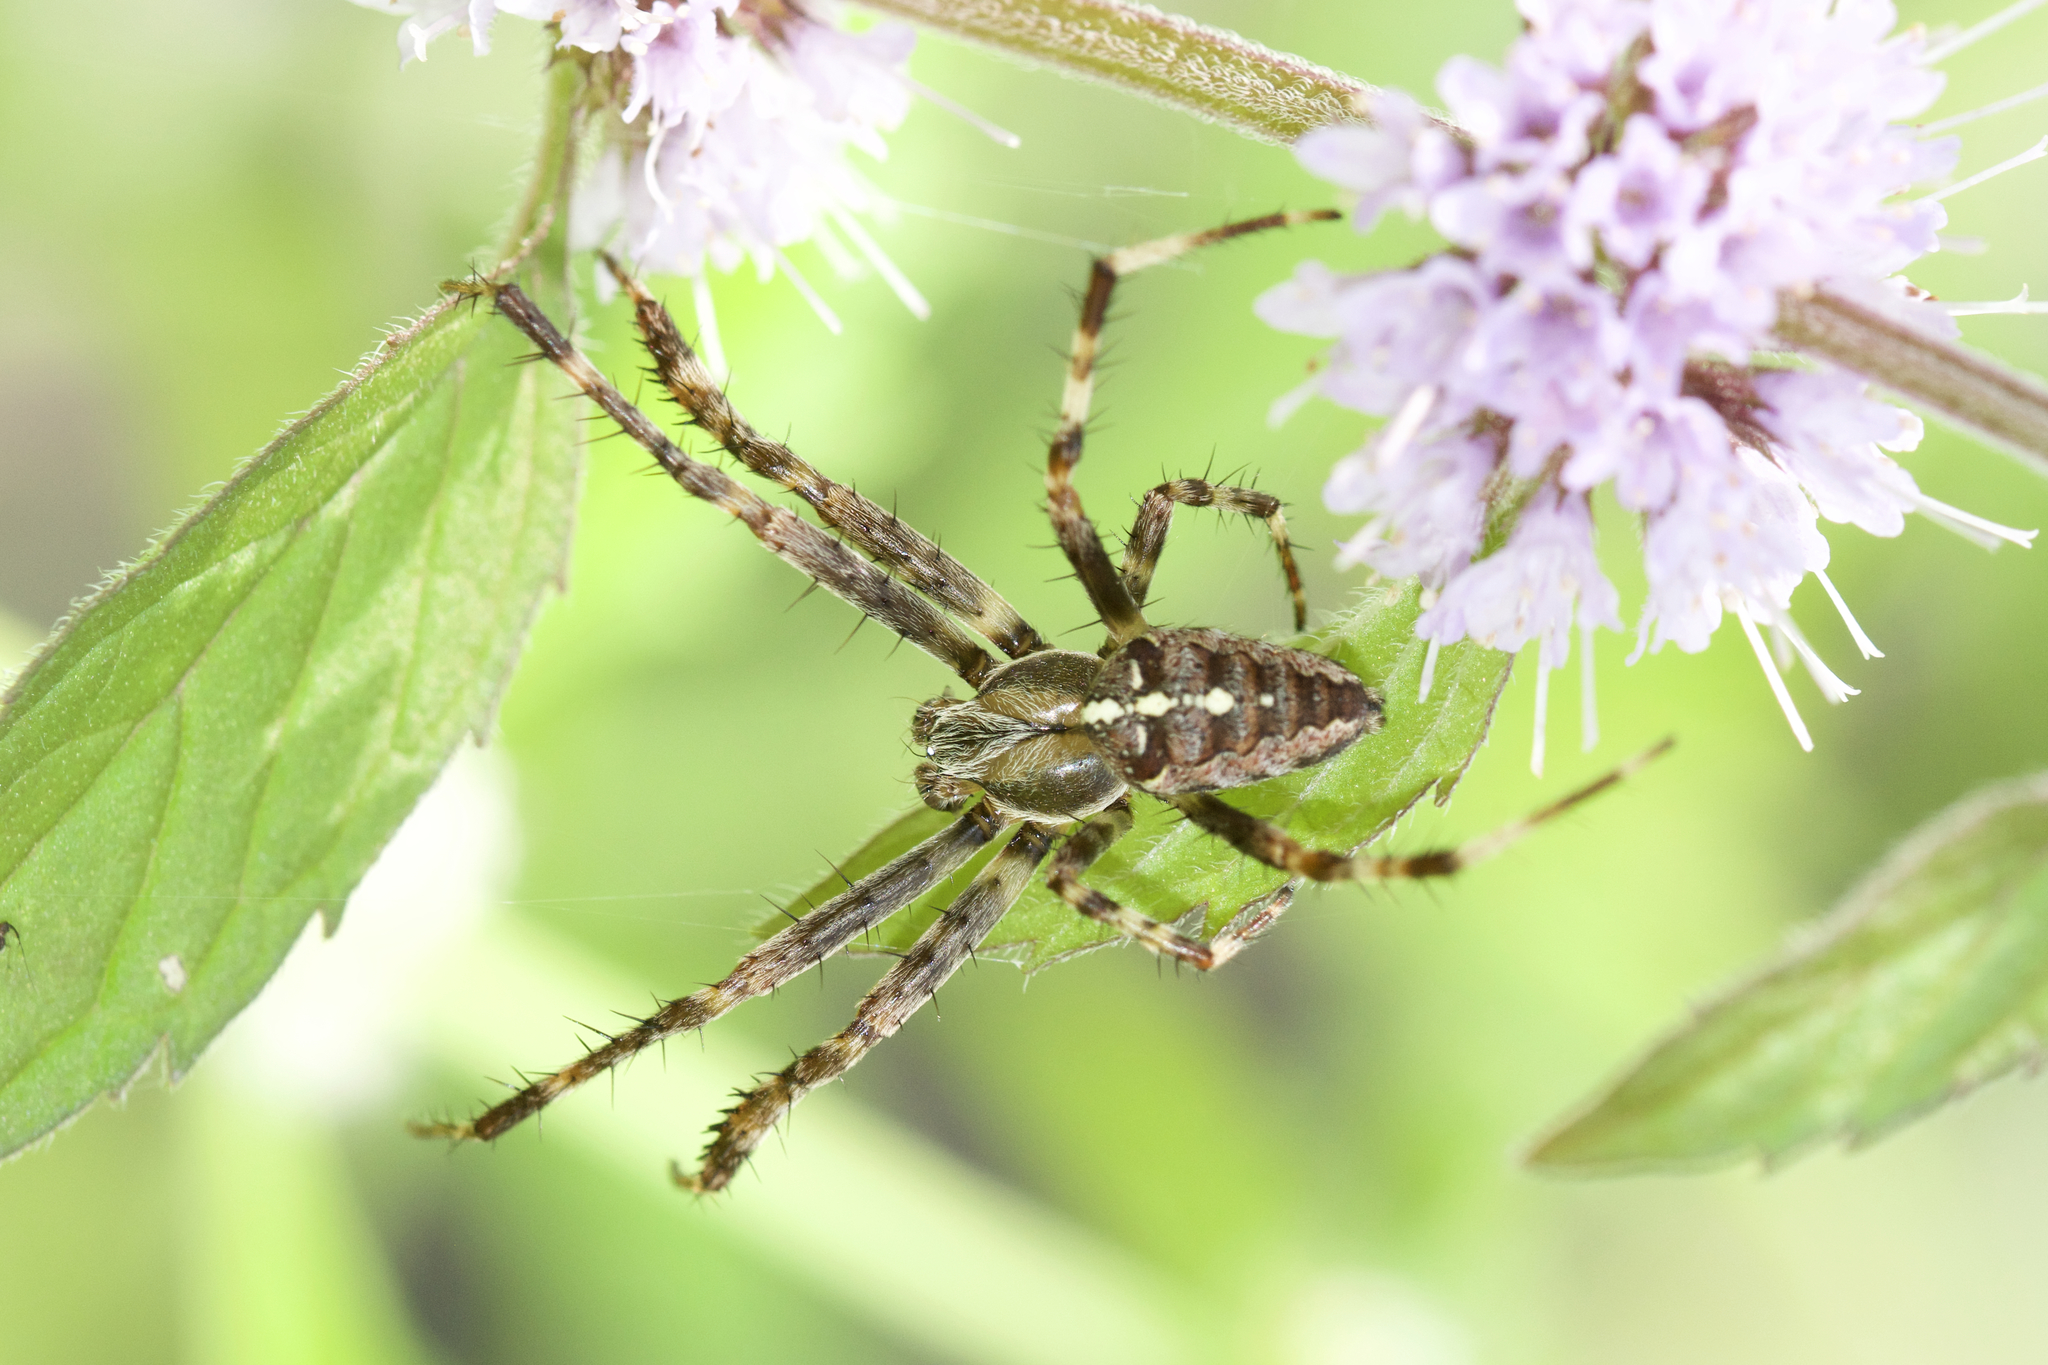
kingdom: Animalia
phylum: Arthropoda
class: Arachnida
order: Araneae
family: Araneidae
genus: Araneus
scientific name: Araneus diadematus
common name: Cross orbweaver
